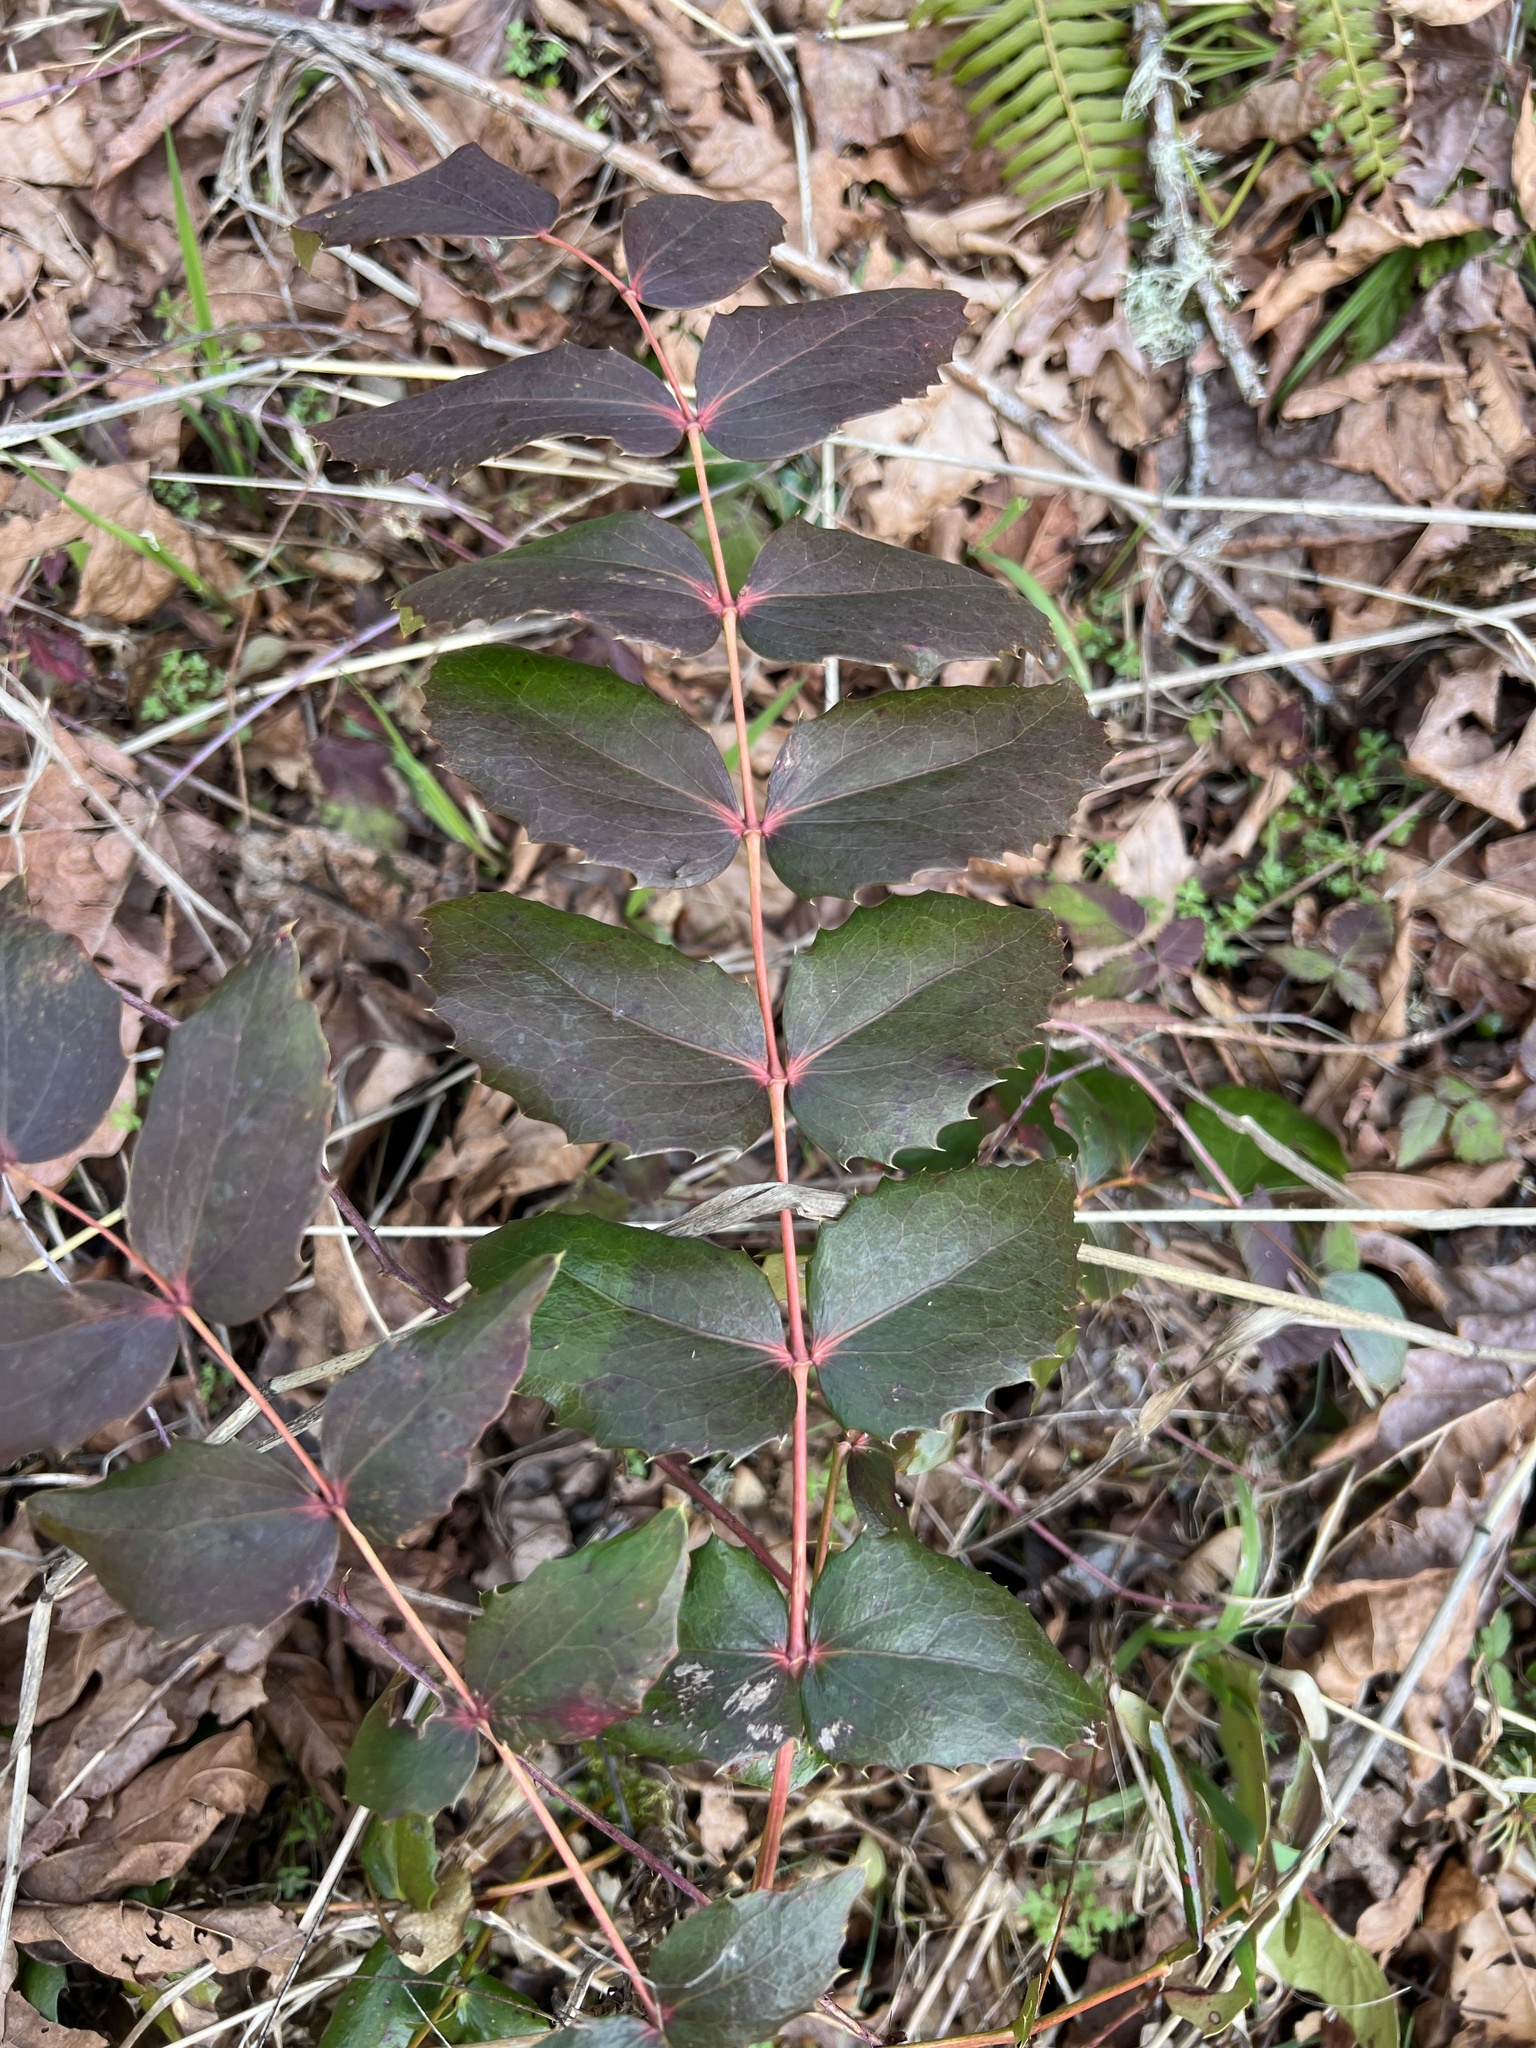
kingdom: Plantae
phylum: Tracheophyta
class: Magnoliopsida
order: Ranunculales
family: Berberidaceae
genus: Mahonia
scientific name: Mahonia nervosa
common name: Cascade oregon-grape
